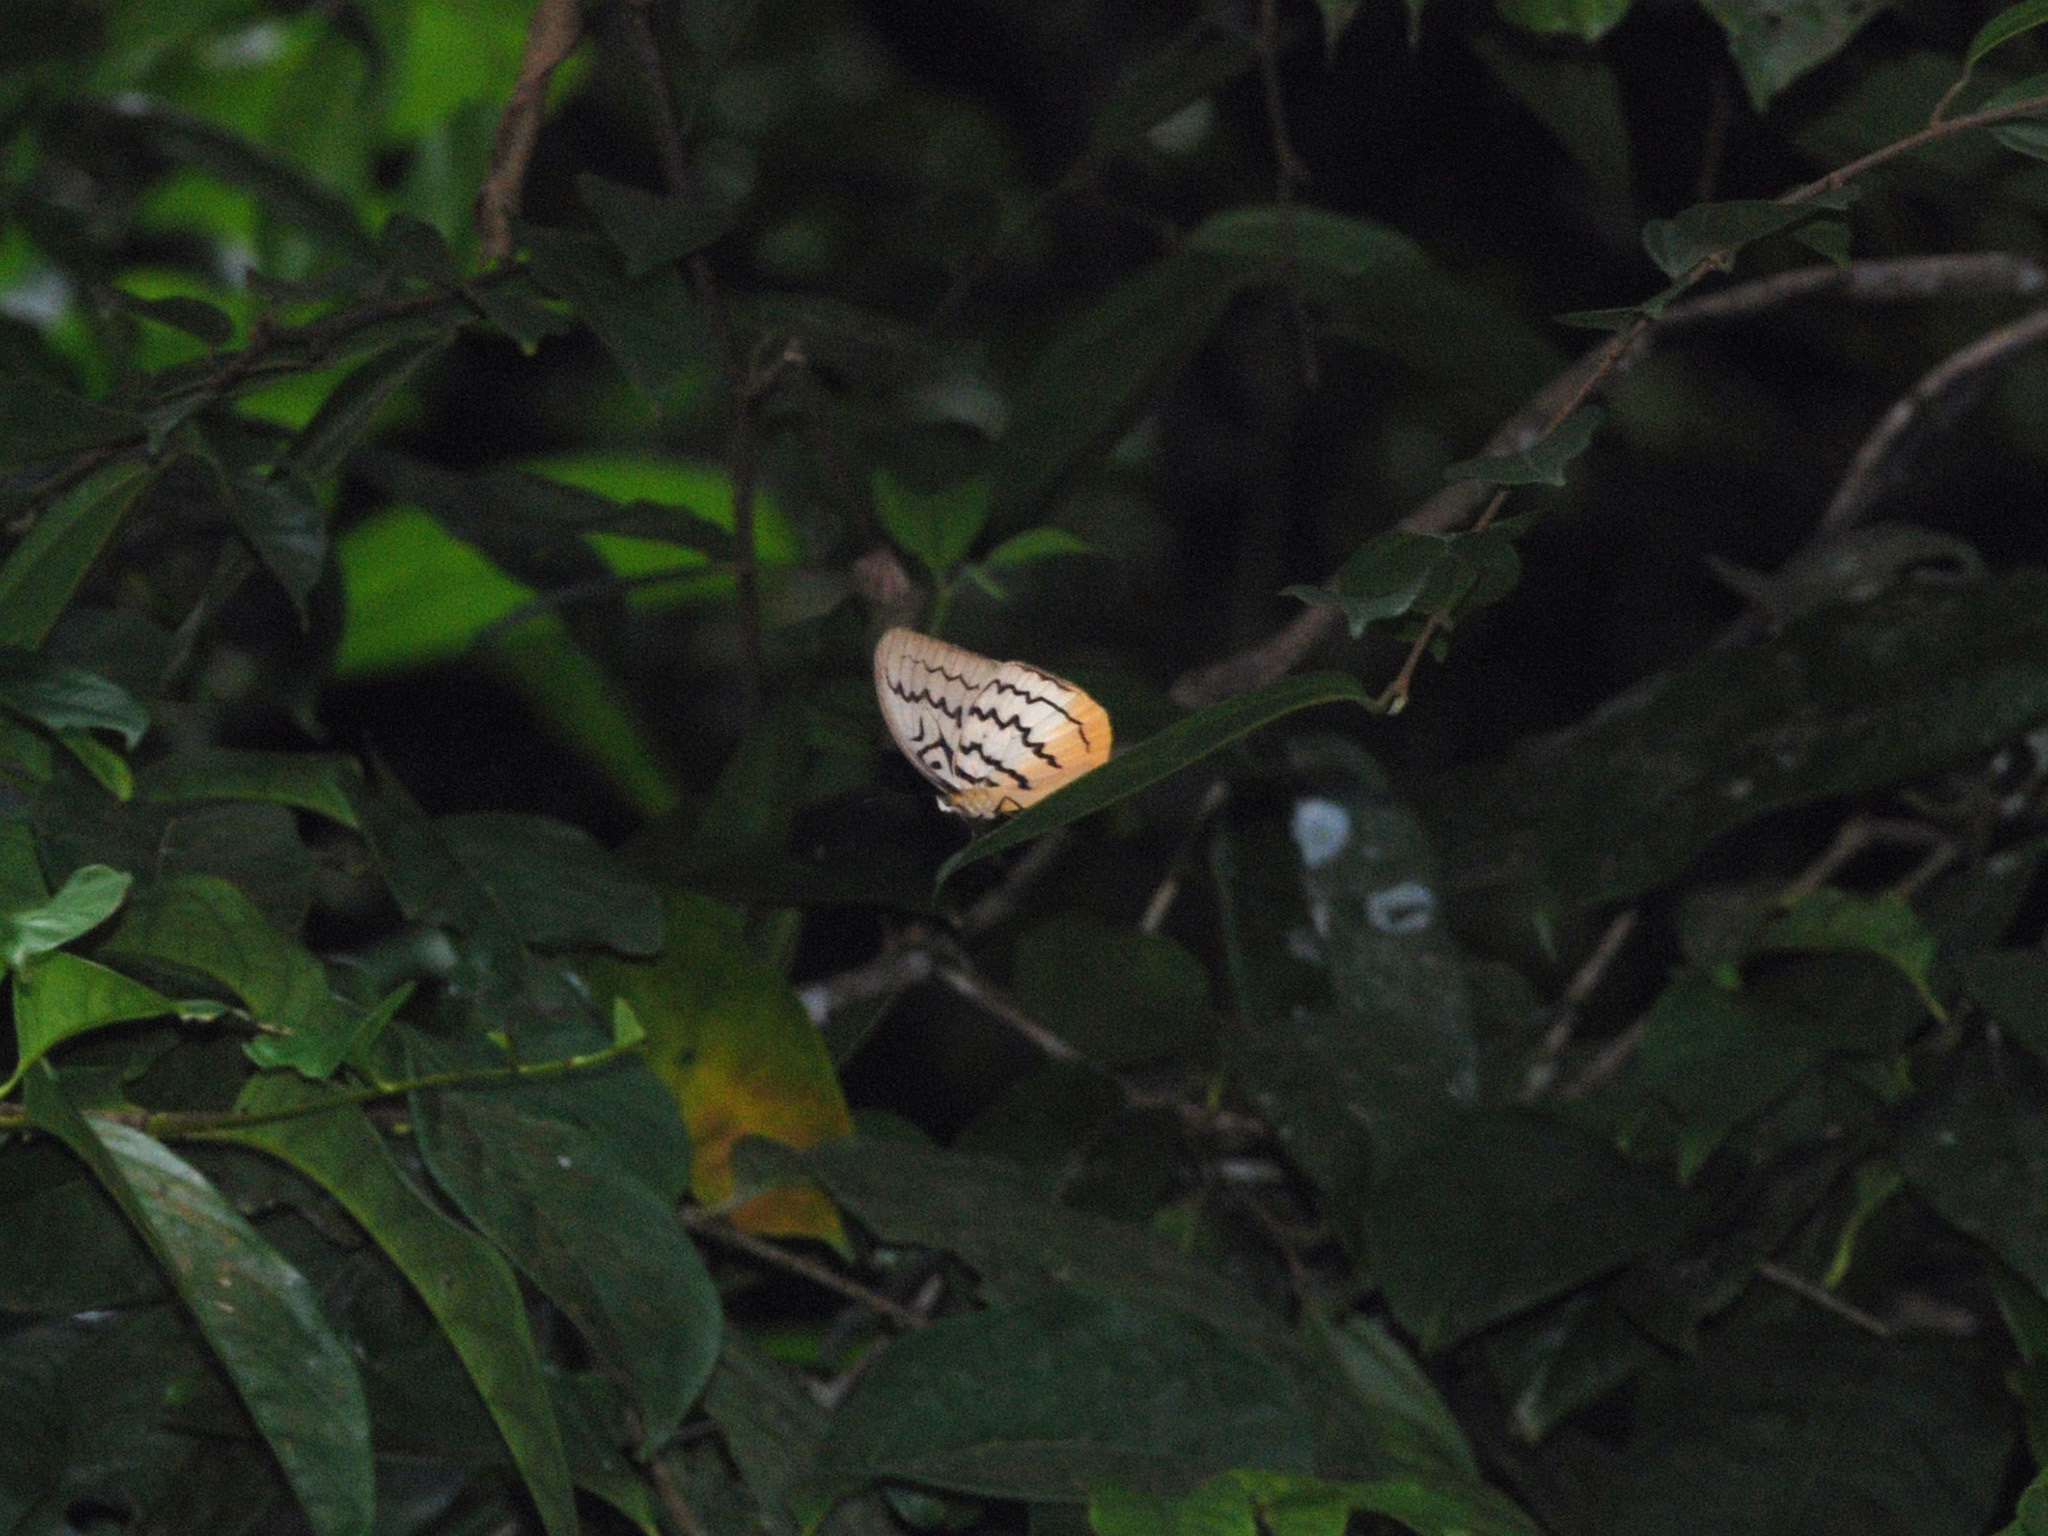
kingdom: Animalia
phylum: Arthropoda
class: Insecta
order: Lepidoptera
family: Nymphalidae
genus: Faunis
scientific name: Faunis Melanocyma faunula
